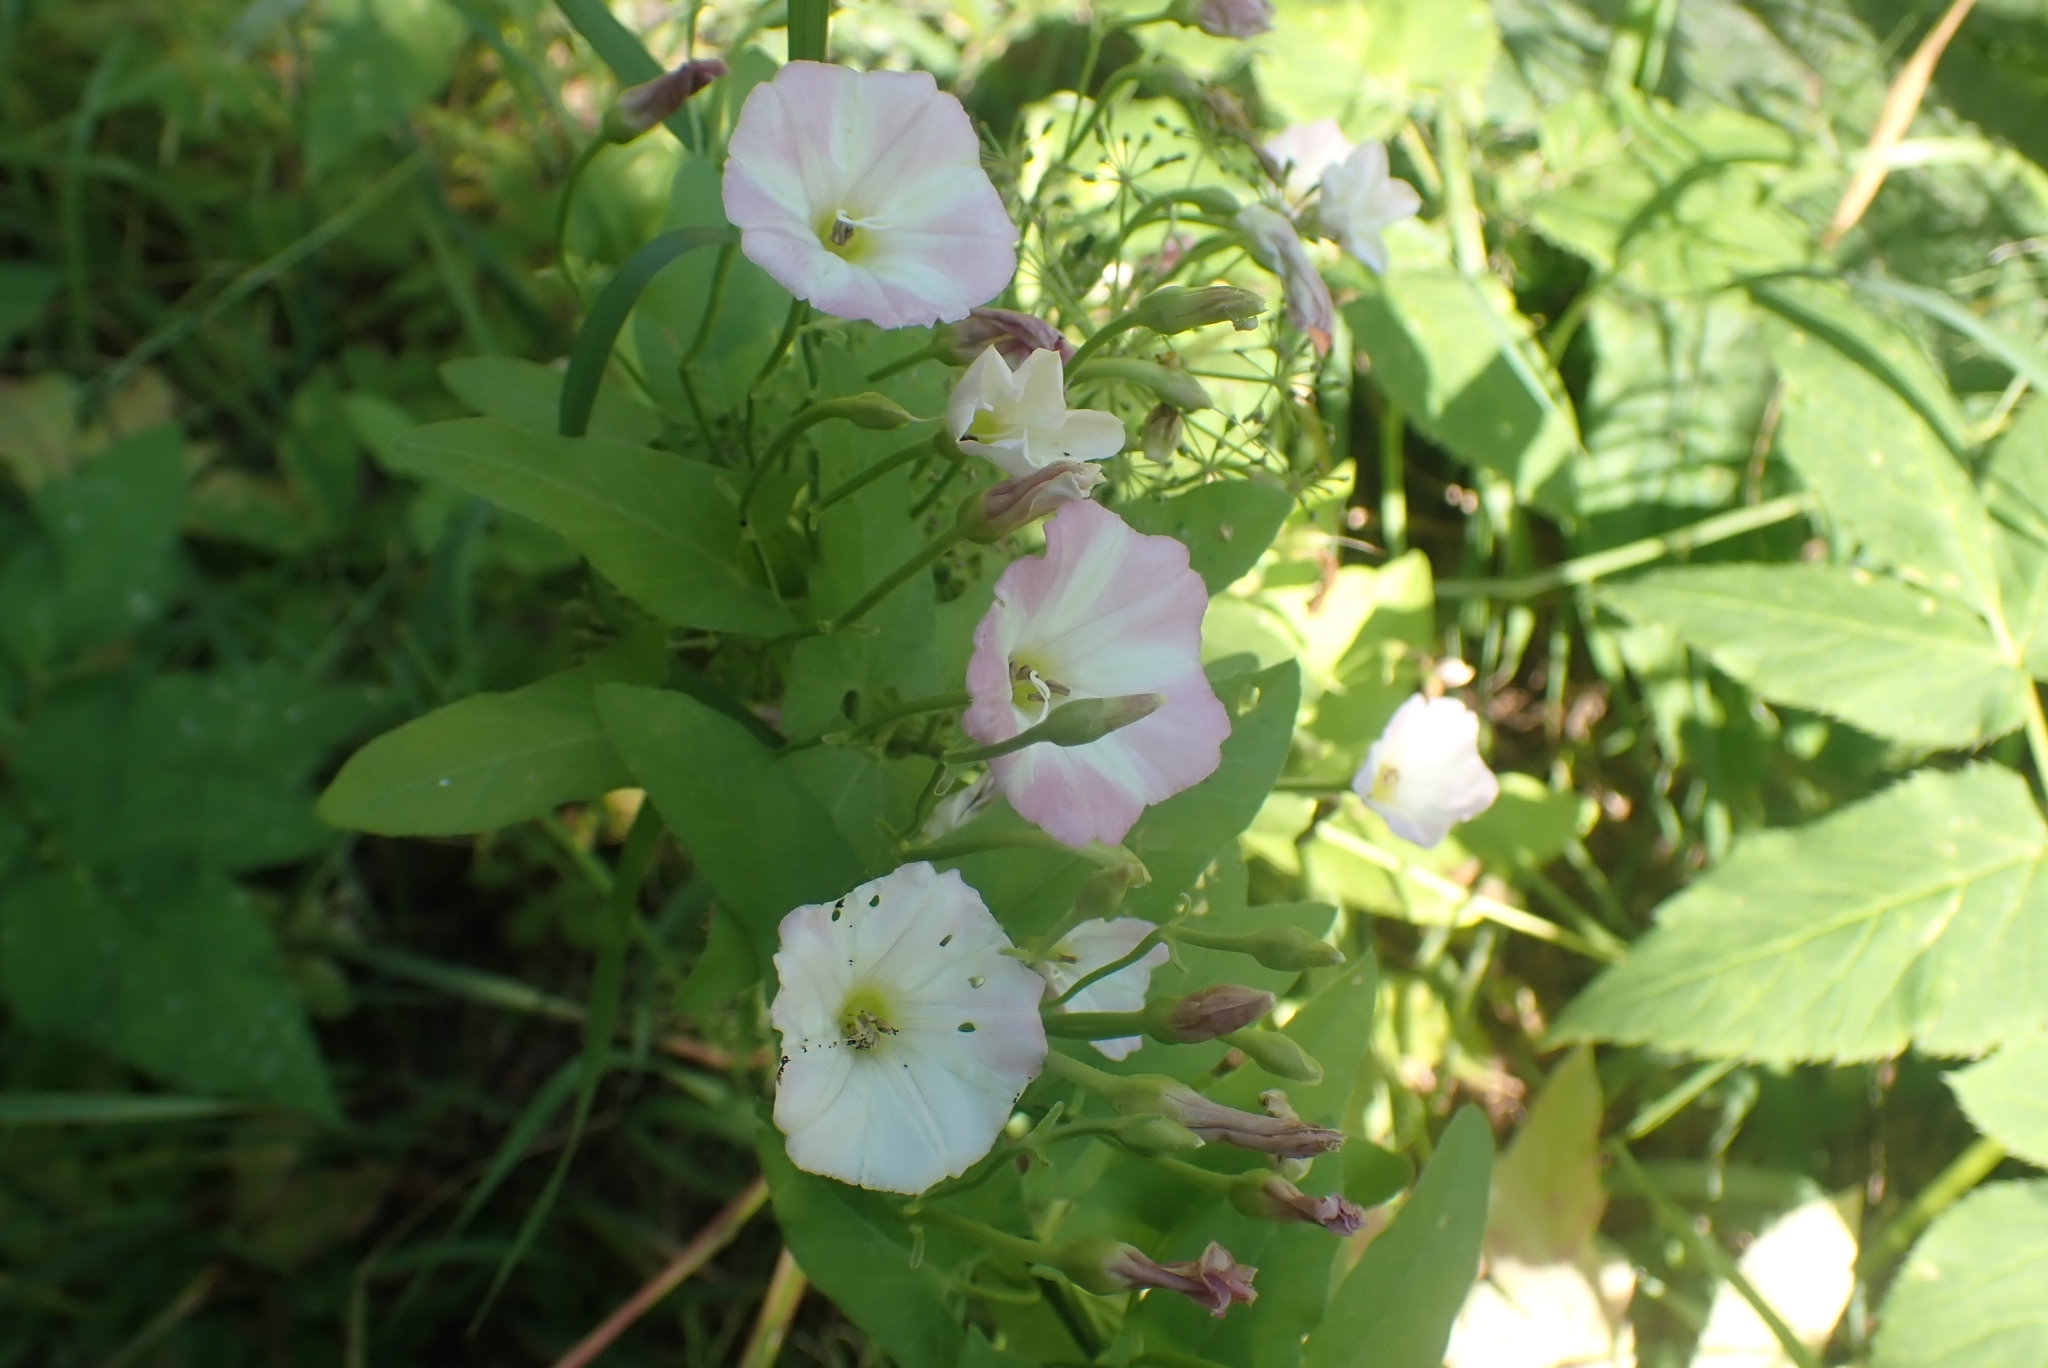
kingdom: Plantae
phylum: Tracheophyta
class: Magnoliopsida
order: Solanales
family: Convolvulaceae
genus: Convolvulus
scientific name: Convolvulus arvensis
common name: Field bindweed
